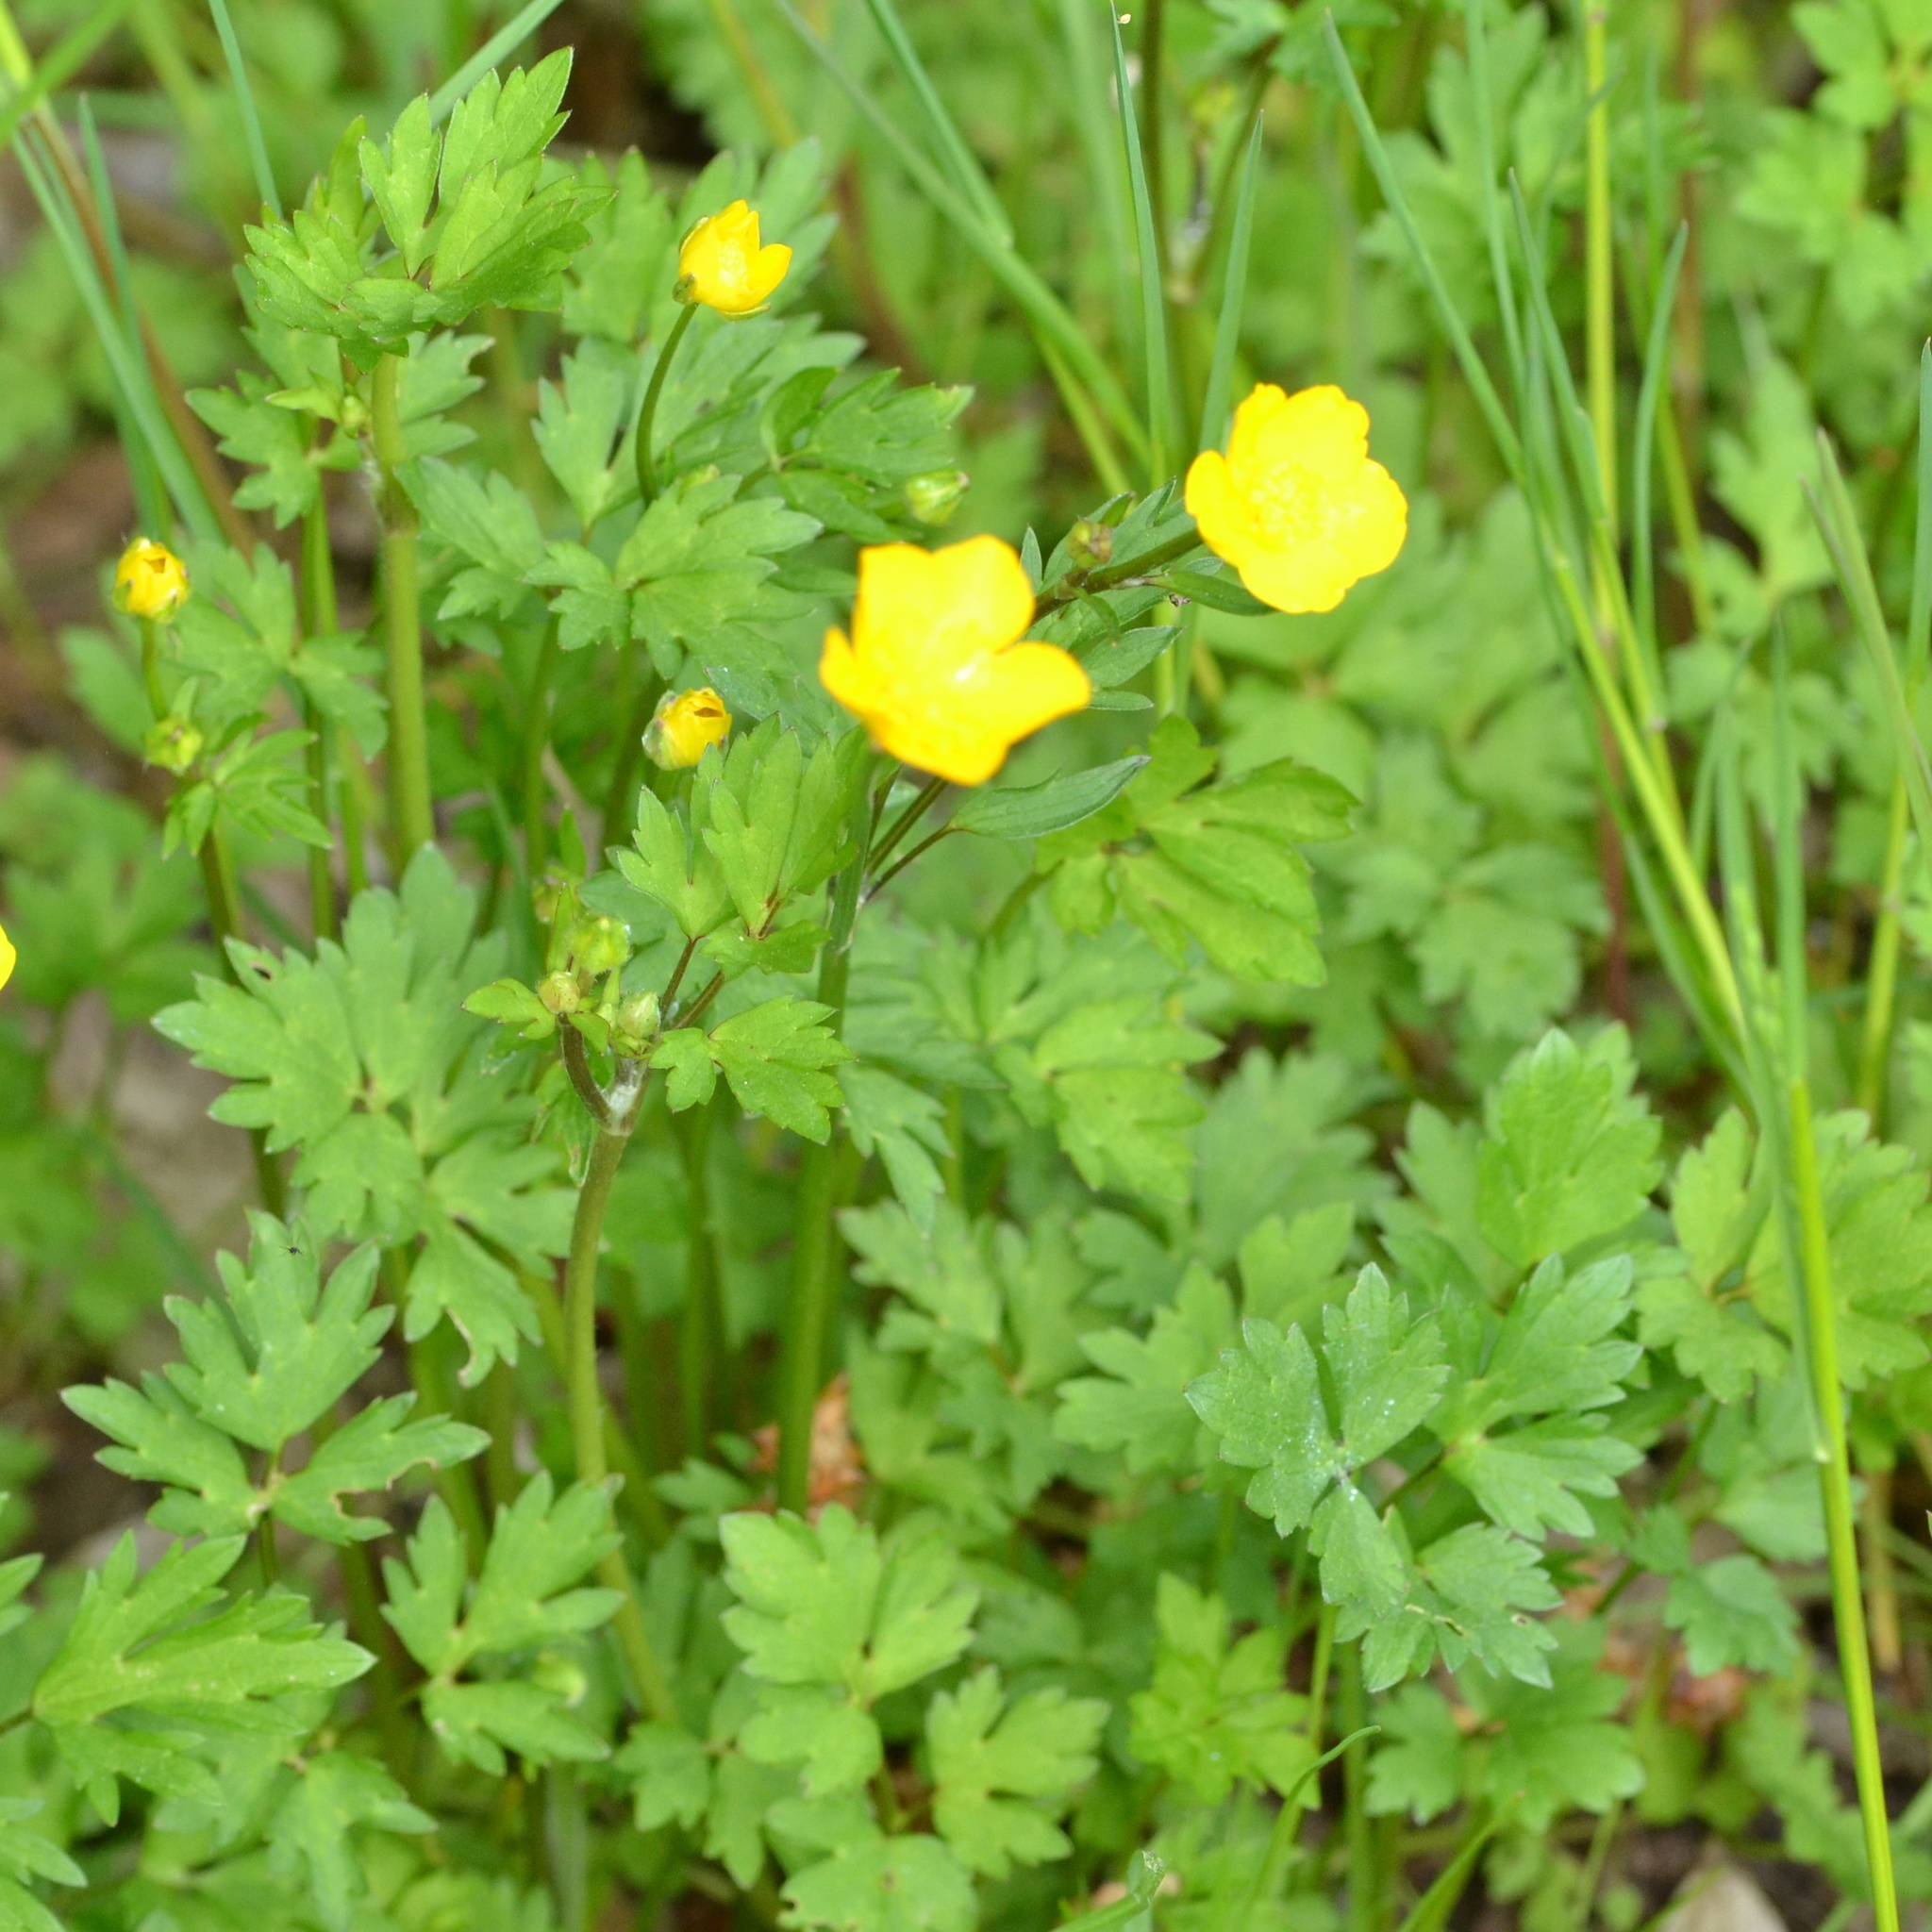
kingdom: Plantae
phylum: Tracheophyta
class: Magnoliopsida
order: Ranunculales
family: Ranunculaceae
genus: Ranunculus
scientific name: Ranunculus repens
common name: Creeping buttercup
